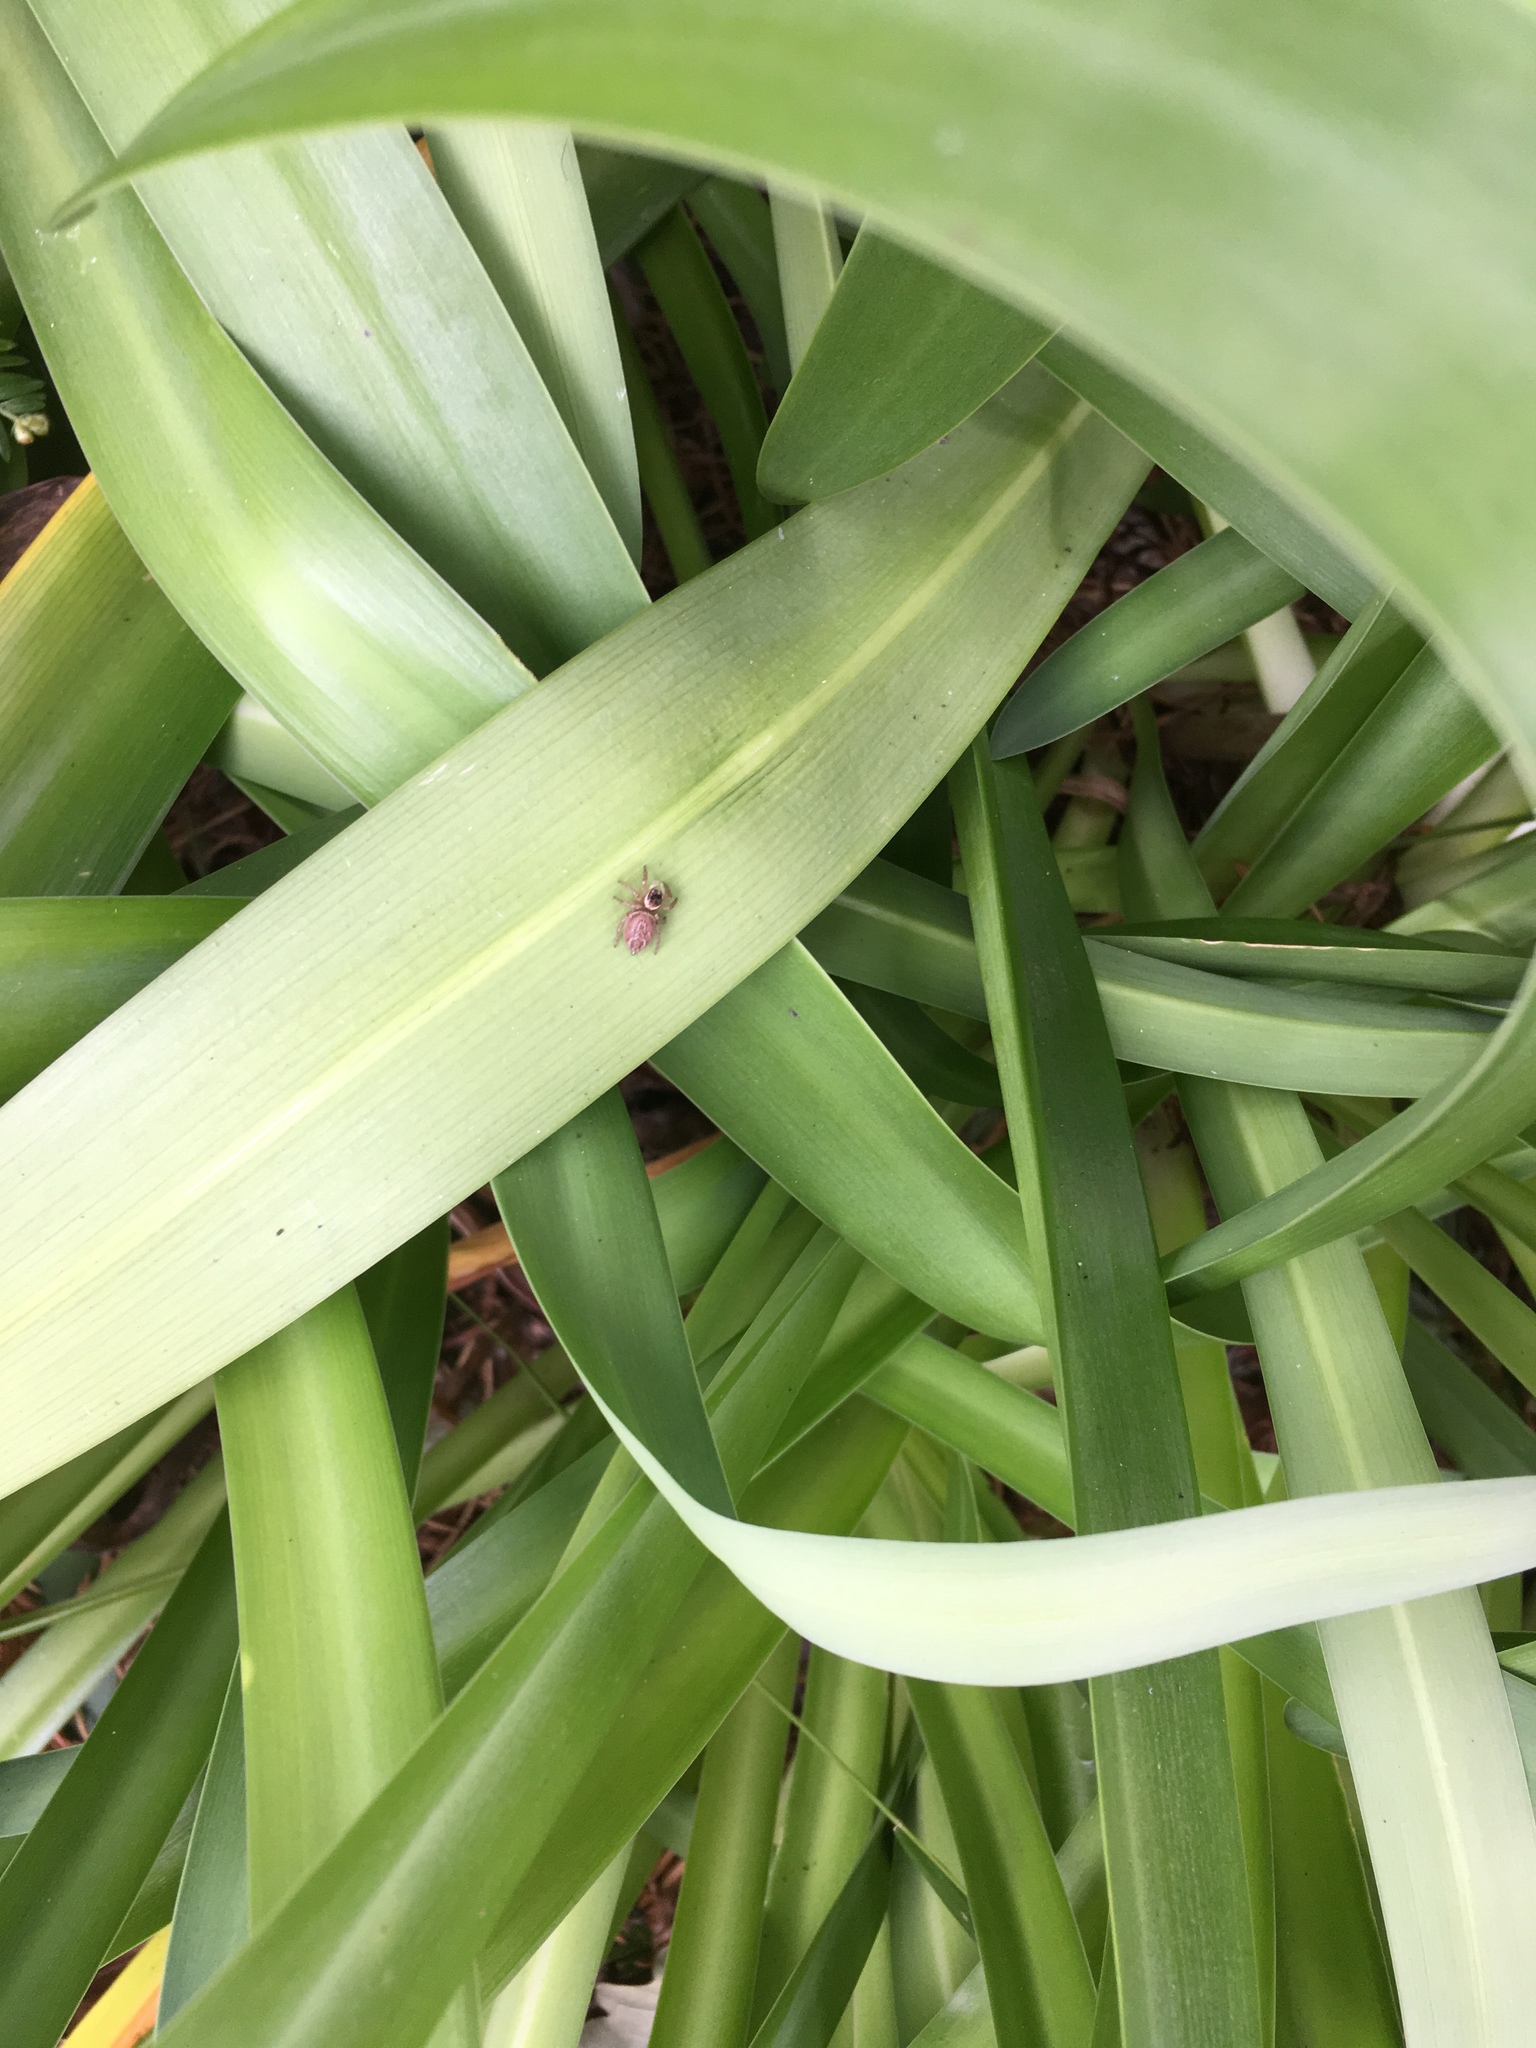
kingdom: Animalia
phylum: Arthropoda
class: Arachnida
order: Araneae
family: Salticidae
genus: Maratus
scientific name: Maratus griseus
